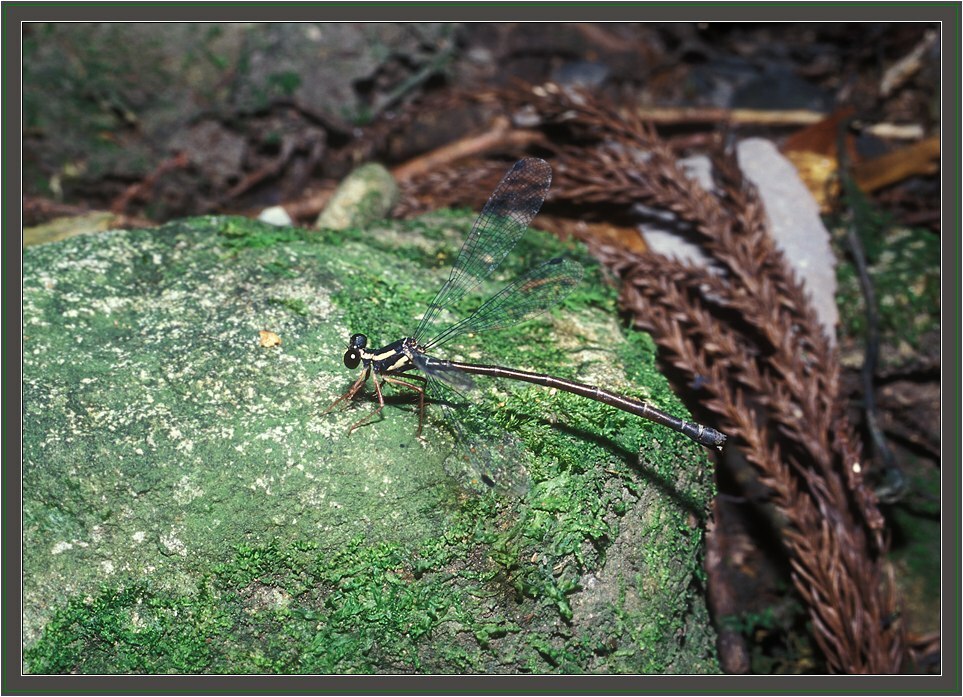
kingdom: Animalia
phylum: Arthropoda
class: Insecta
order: Odonata
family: Megapodagrionidae
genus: Rhipidolestes
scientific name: Rhipidolestes hiraoi
